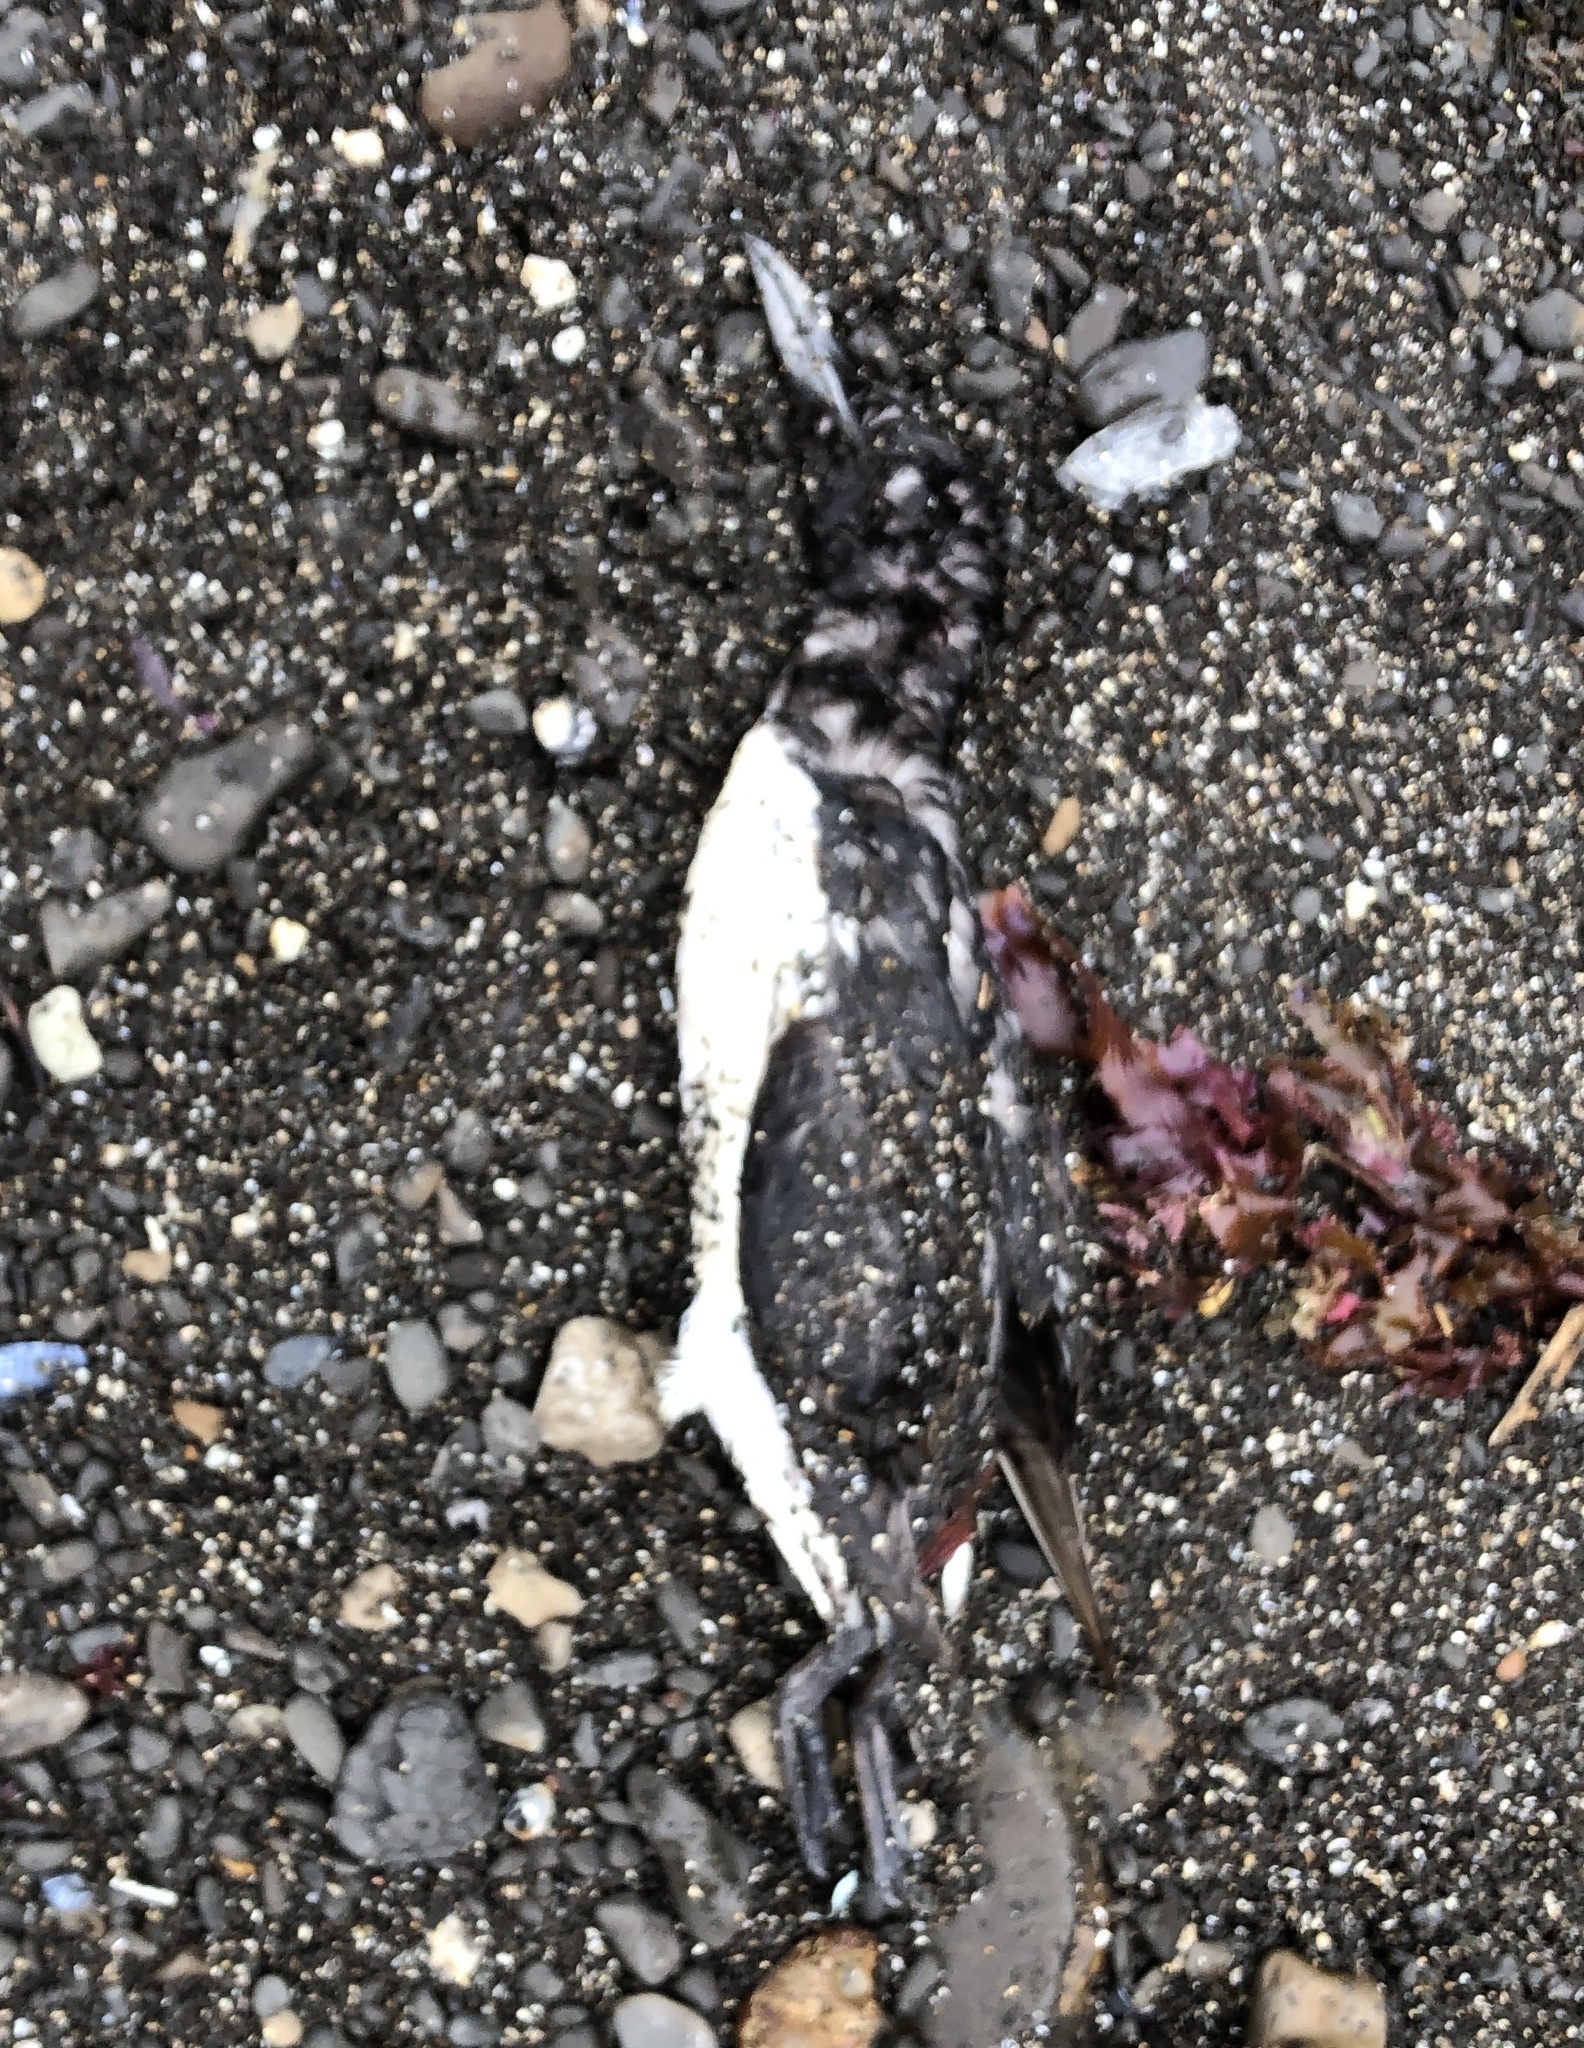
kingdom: Animalia
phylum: Chordata
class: Aves
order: Charadriiformes
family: Alcidae
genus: Uria
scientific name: Uria aalge
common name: Common murre
